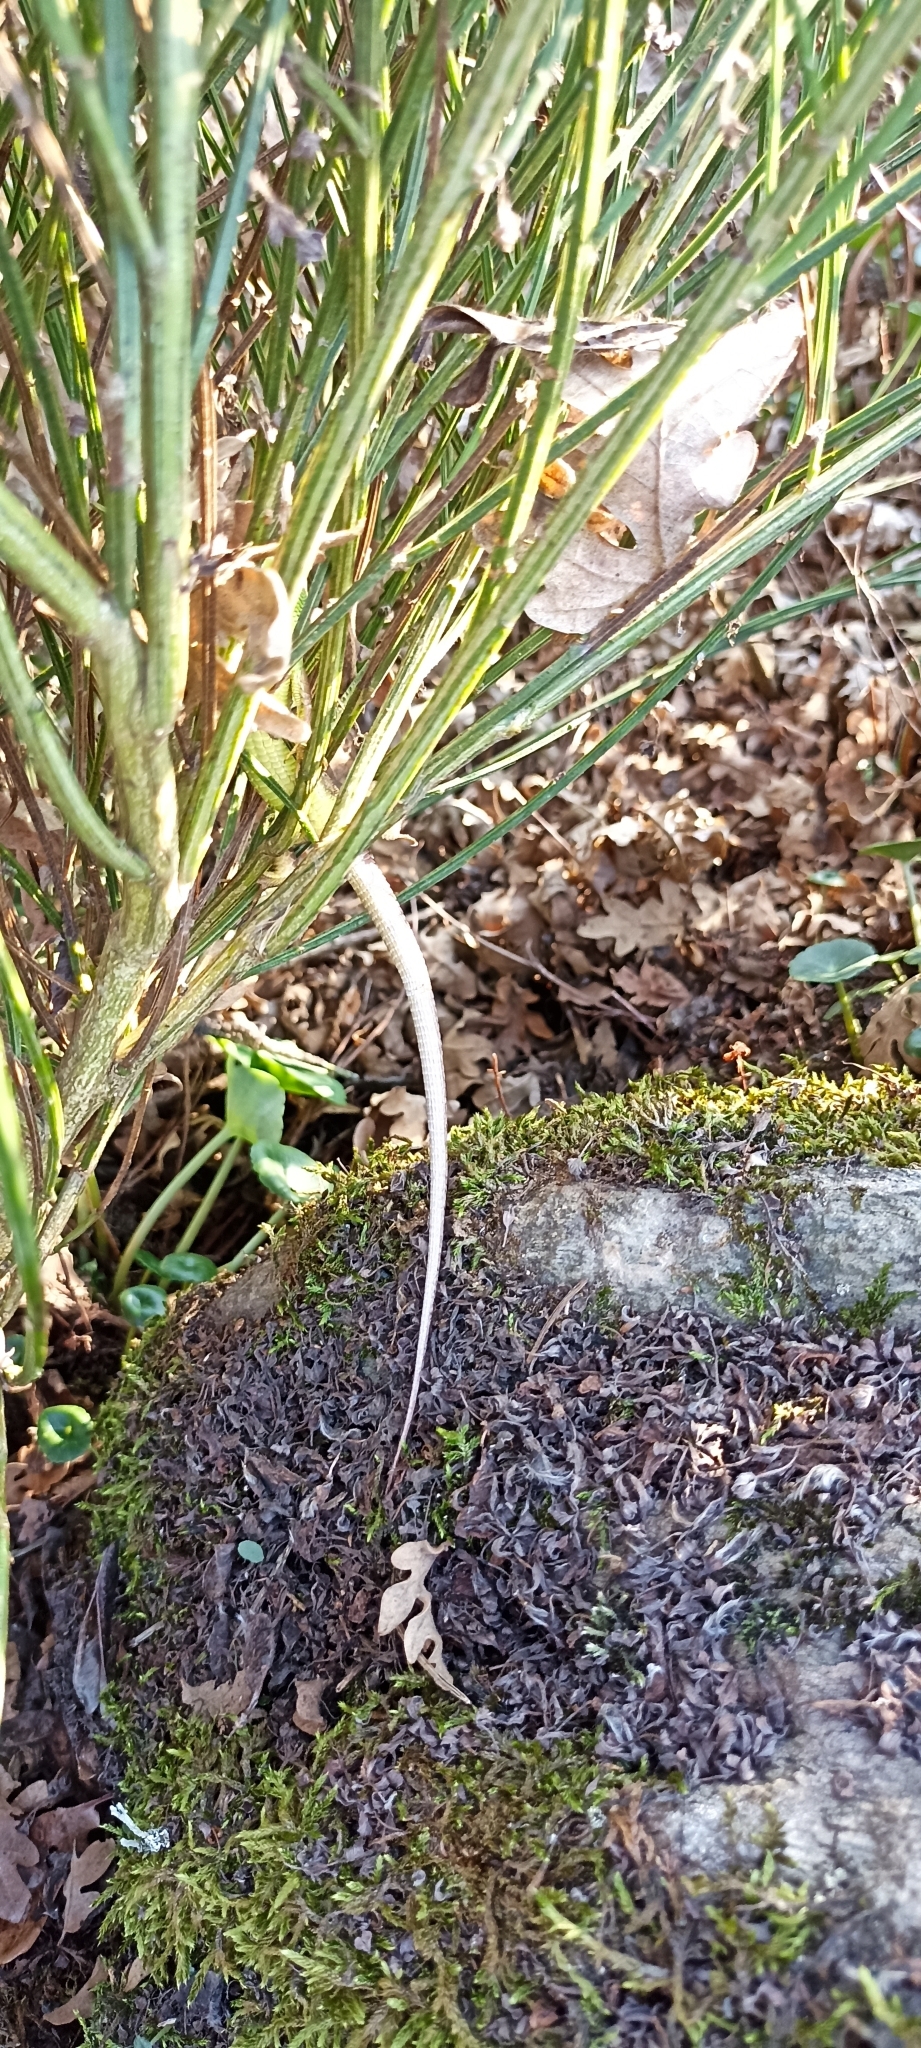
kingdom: Animalia
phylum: Chordata
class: Squamata
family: Lacertidae
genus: Lacerta
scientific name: Lacerta bilineata
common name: Western green lizard
